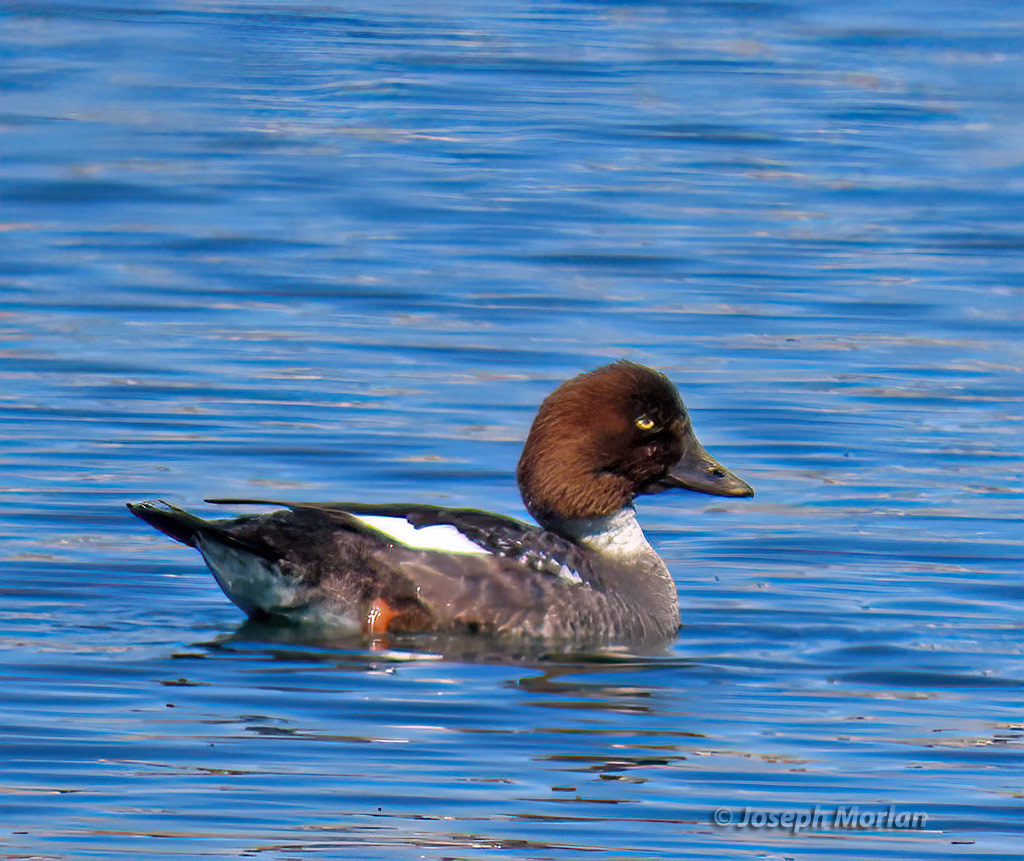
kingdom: Animalia
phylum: Chordata
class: Aves
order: Anseriformes
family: Anatidae
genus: Bucephala
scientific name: Bucephala clangula
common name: Common goldeneye
